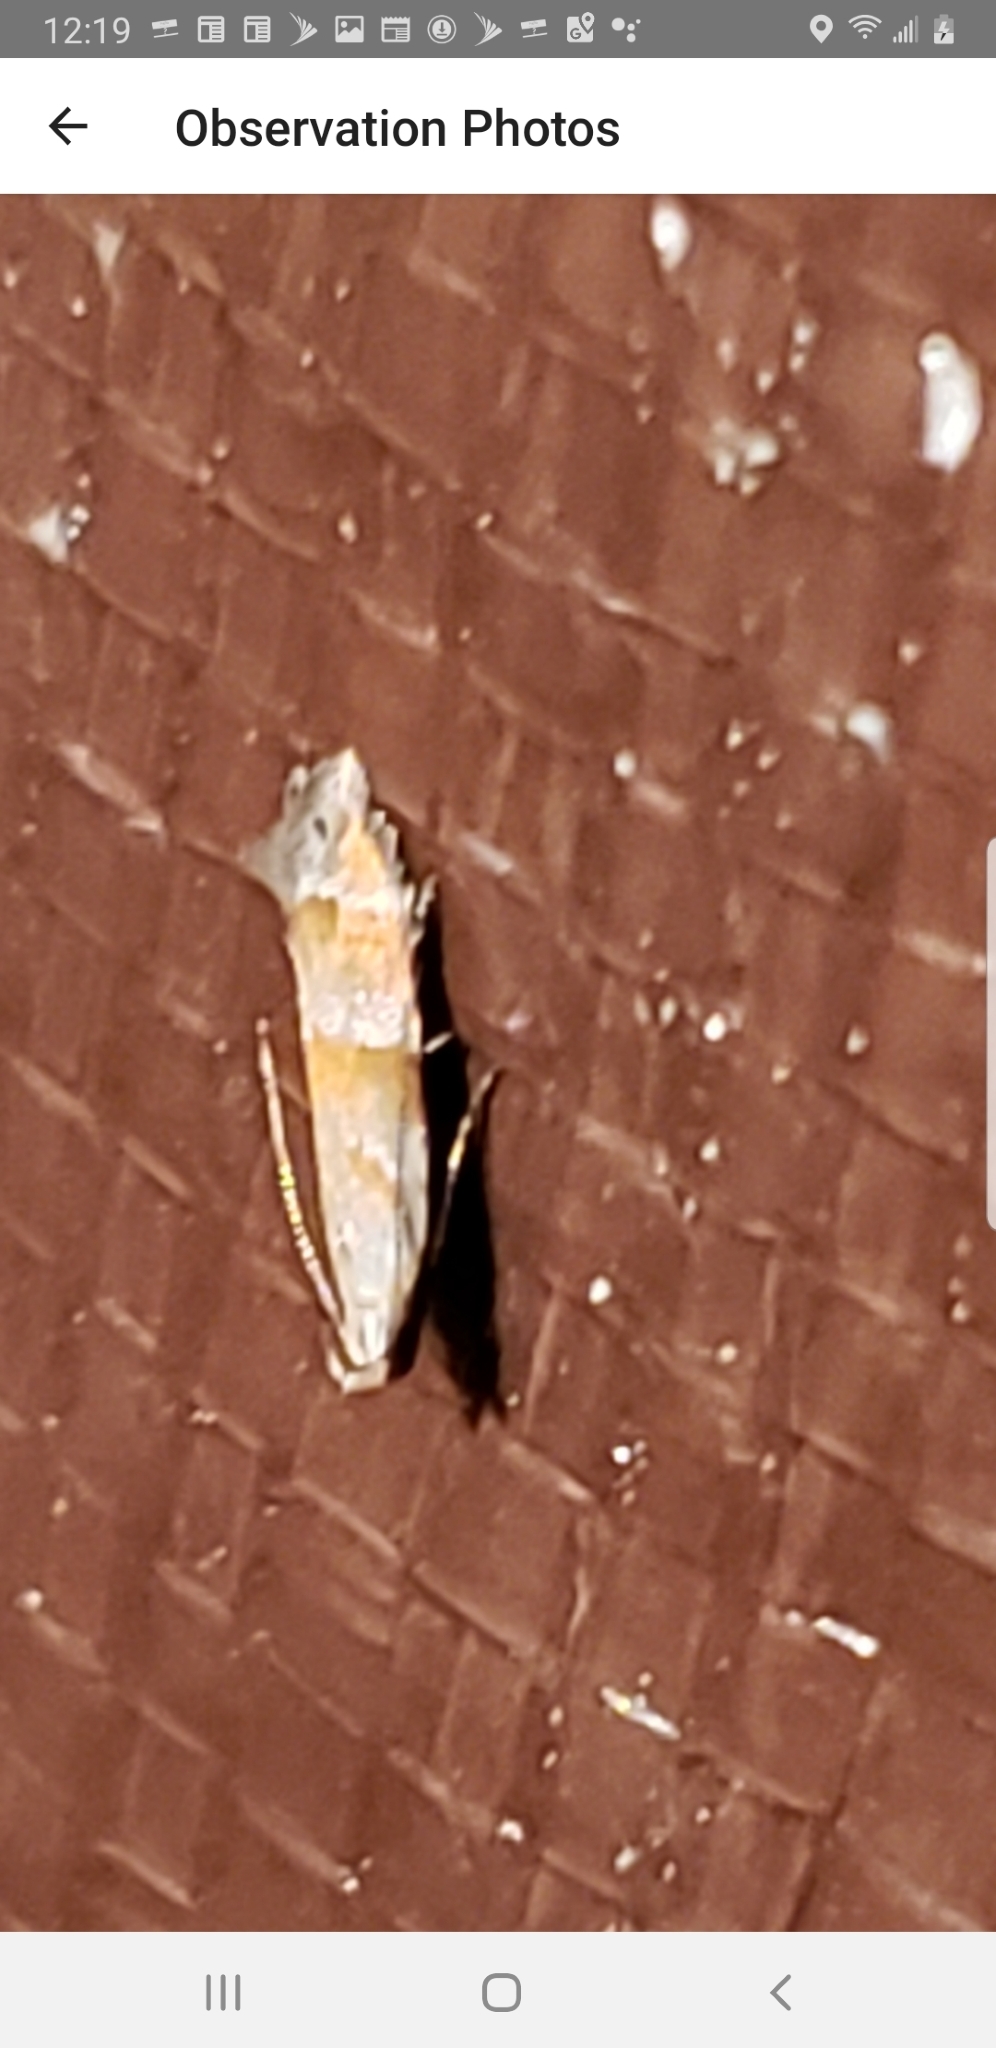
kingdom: Animalia
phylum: Arthropoda
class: Insecta
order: Lepidoptera
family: Gelechiidae
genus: Battaristis
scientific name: Battaristis vittella
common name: Orange stripe-backed moth
